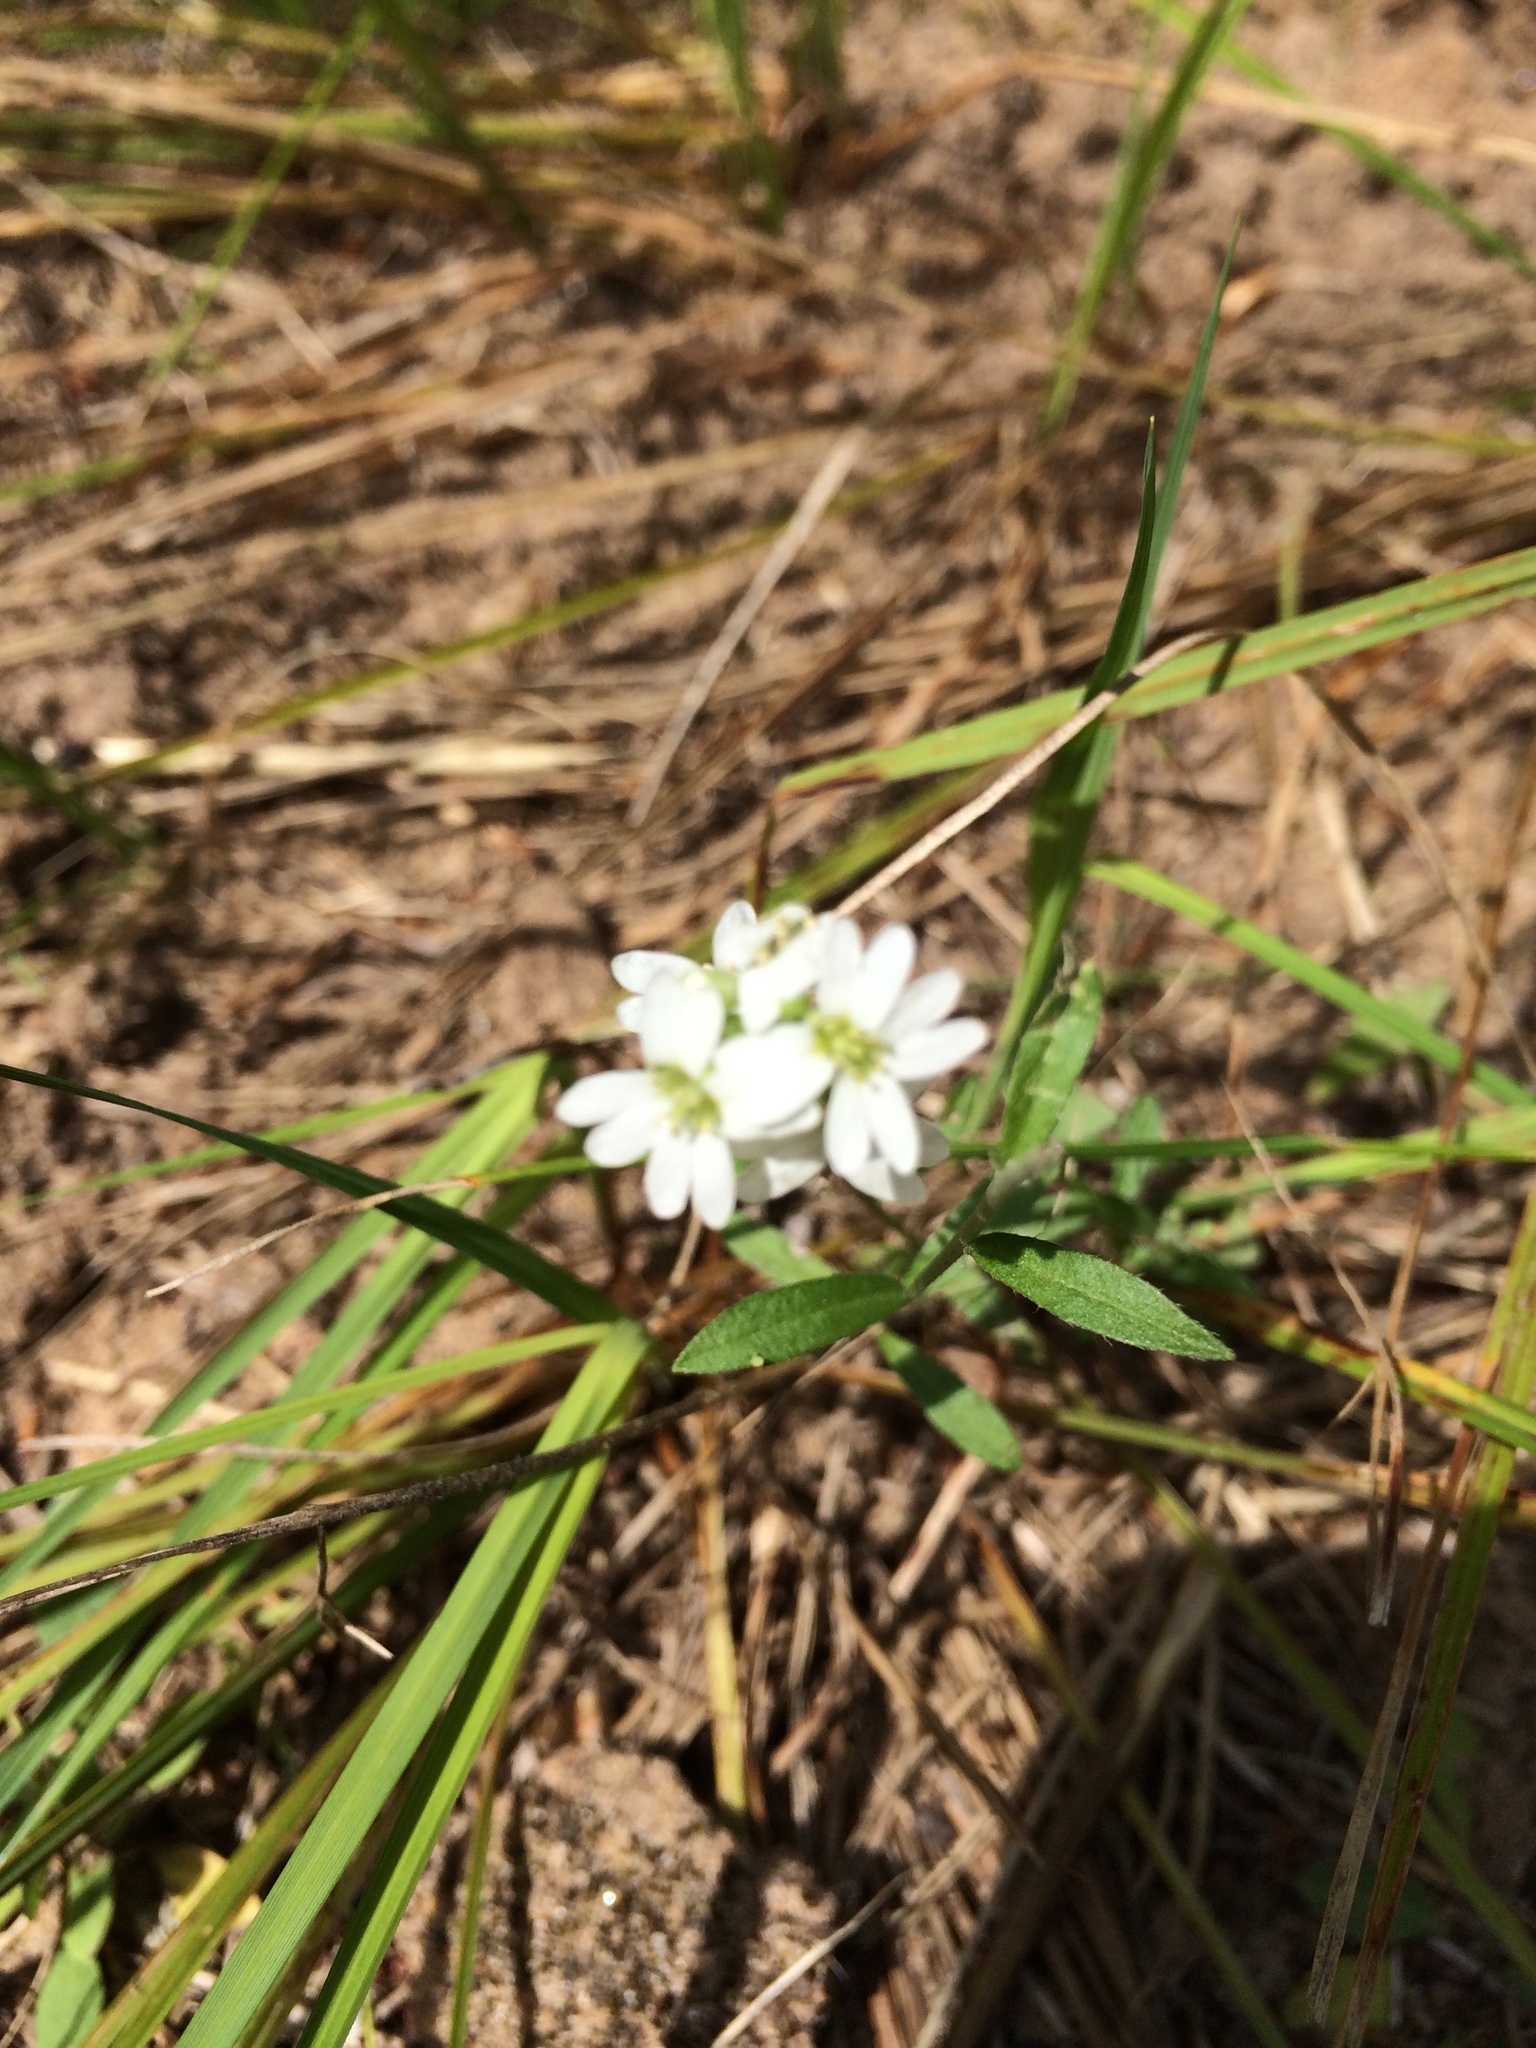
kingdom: Plantae
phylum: Tracheophyta
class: Magnoliopsida
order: Brassicales
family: Brassicaceae
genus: Berteroa
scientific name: Berteroa incana
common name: Hoary alison
